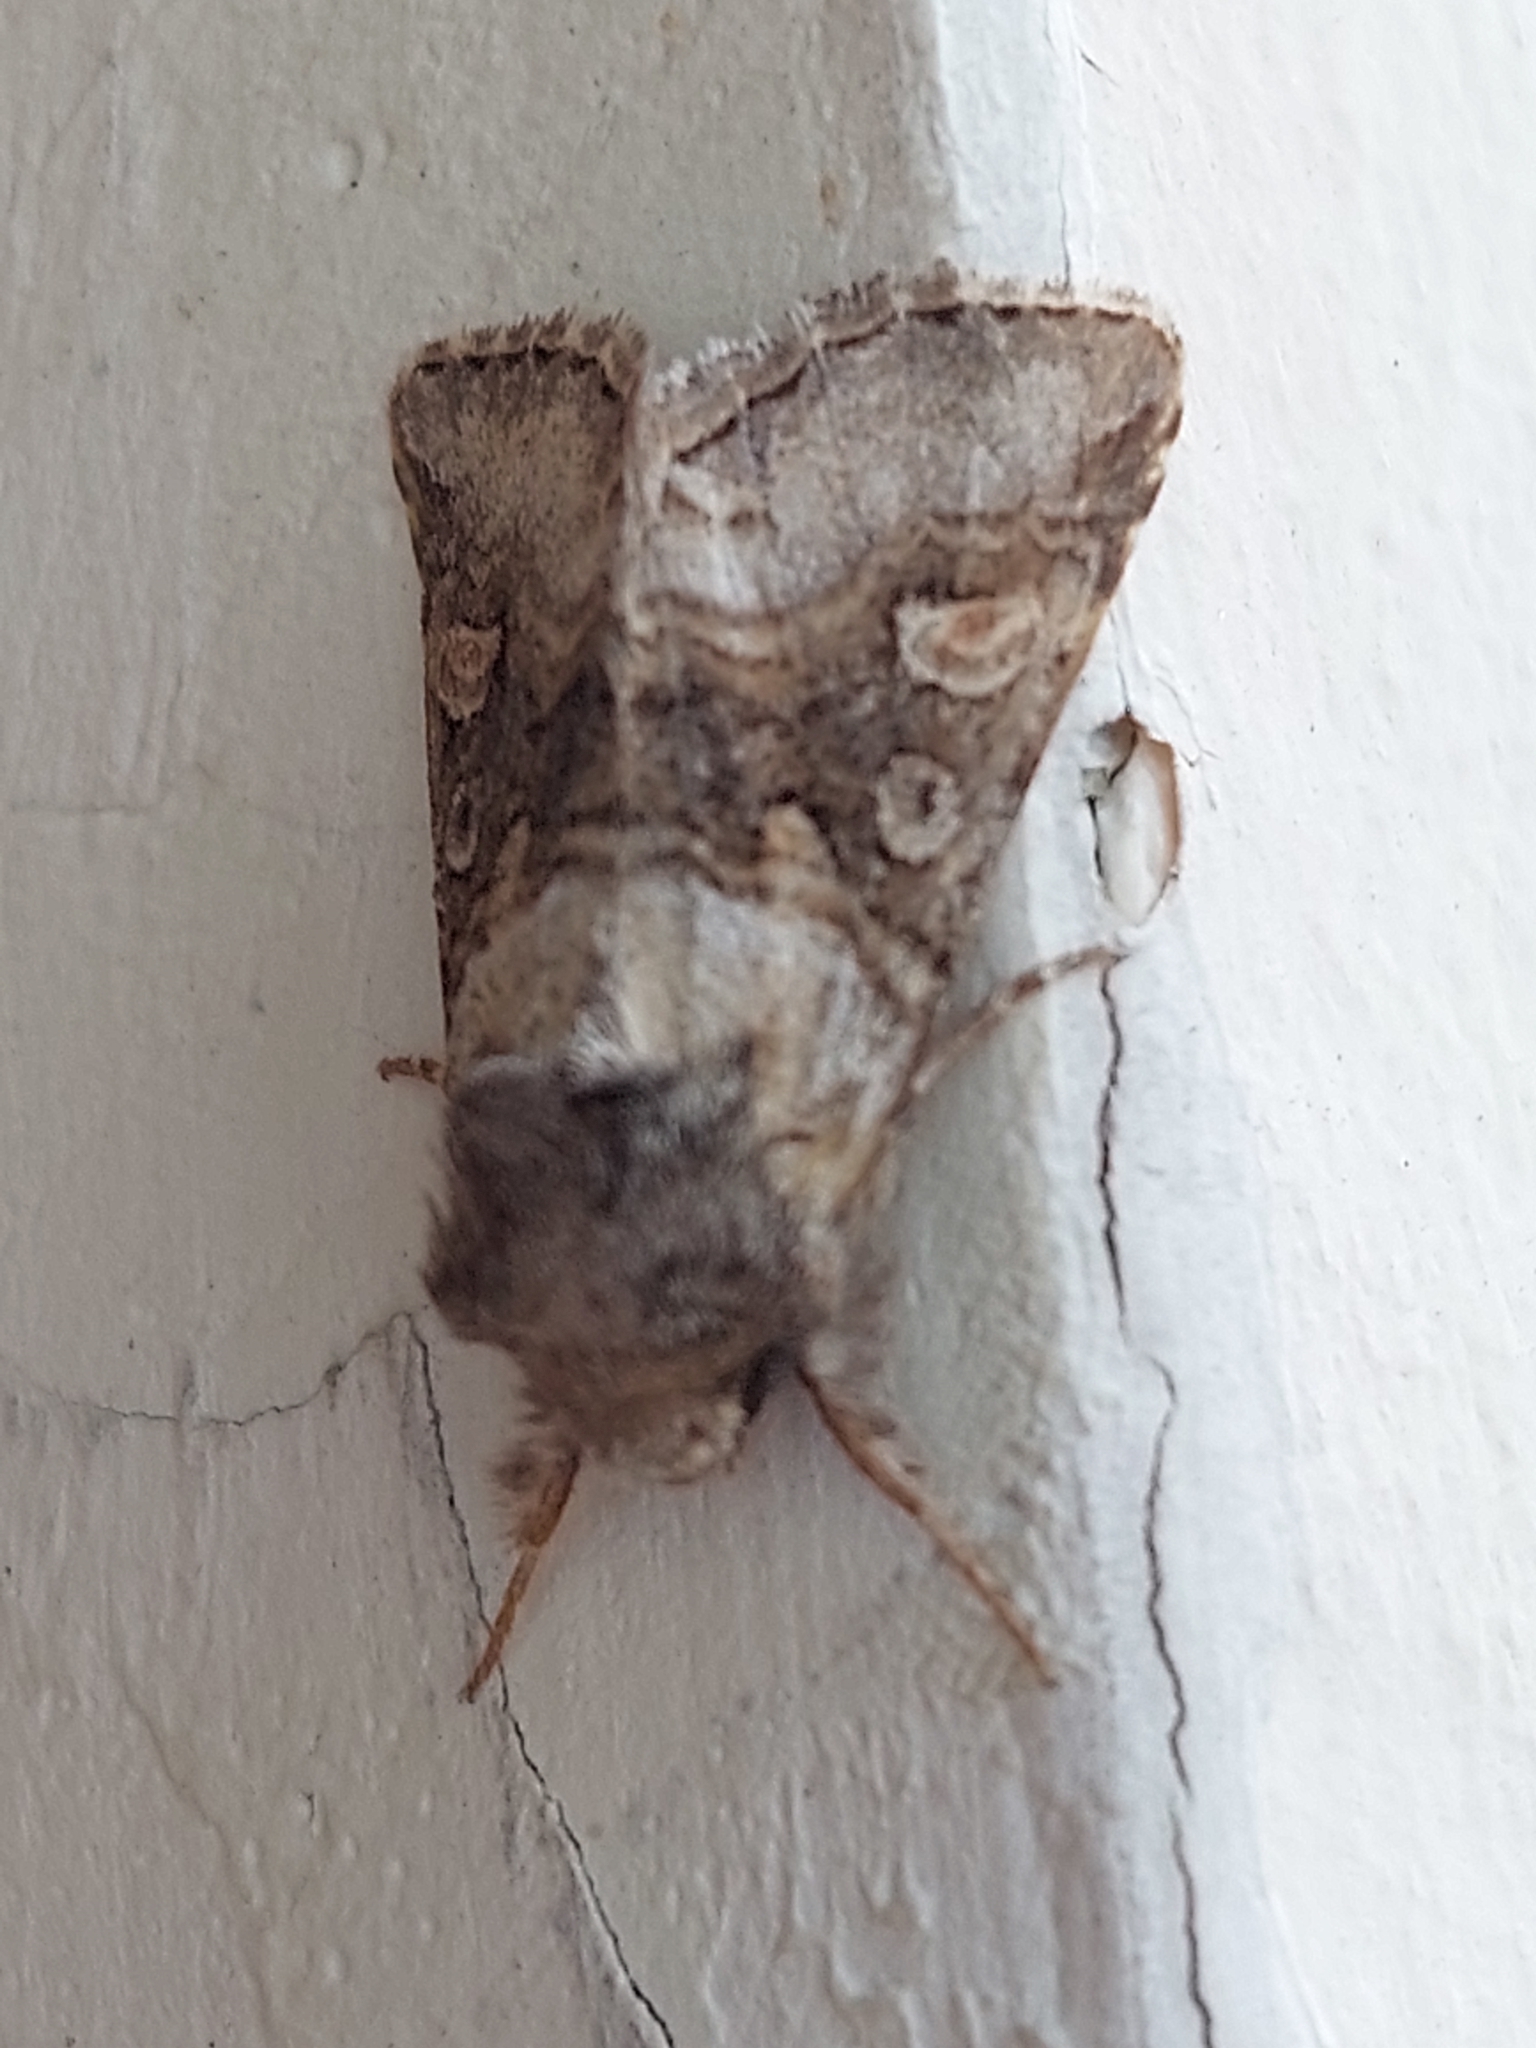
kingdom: Animalia
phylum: Arthropoda
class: Insecta
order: Lepidoptera
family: Noctuidae
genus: Cleoceris
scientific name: Cleoceris scoriacea
